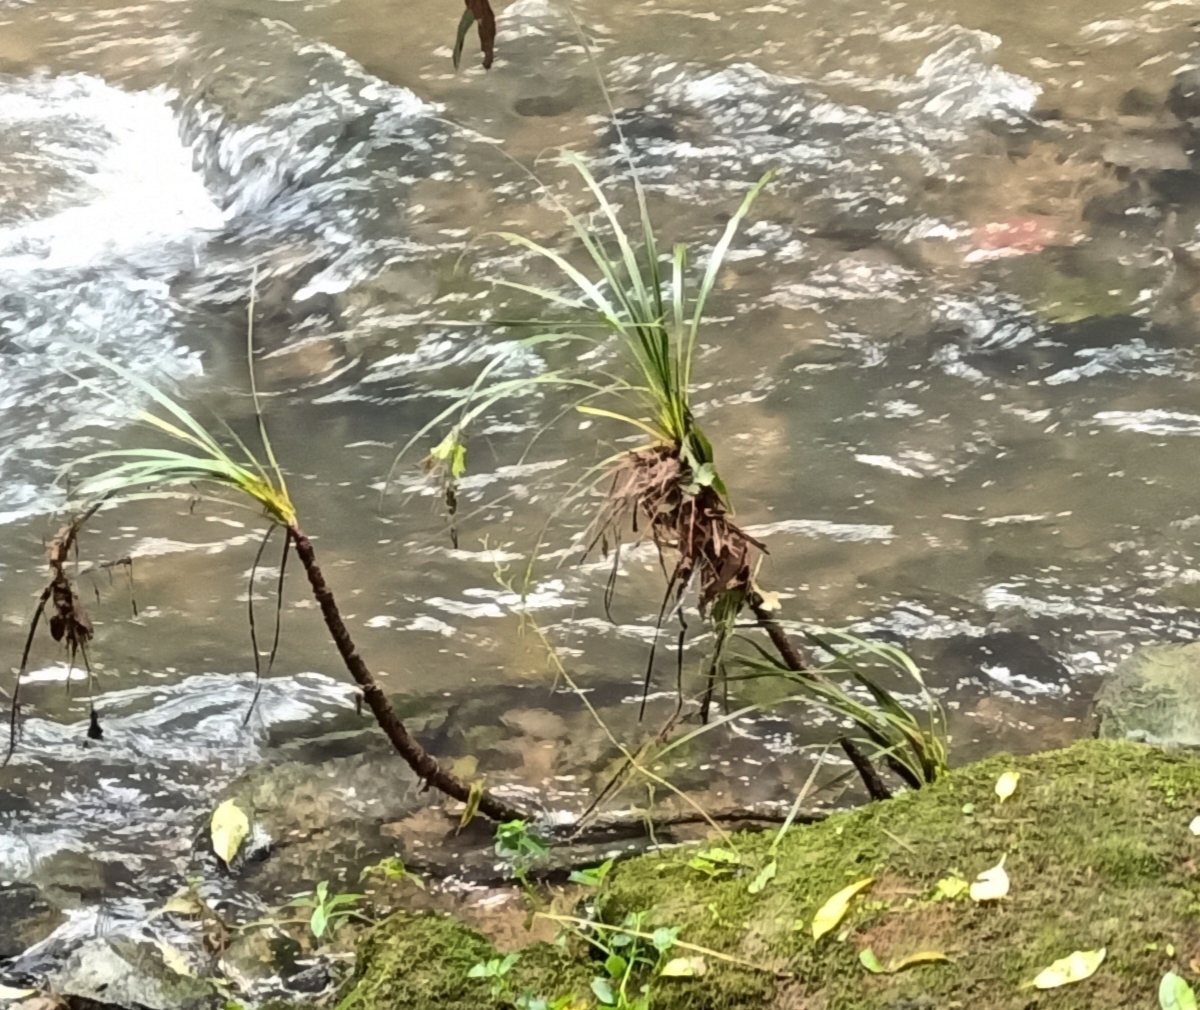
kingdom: Plantae
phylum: Tracheophyta
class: Liliopsida
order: Asparagales
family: Asparagaceae
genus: Cordyline
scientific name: Cordyline banksii
